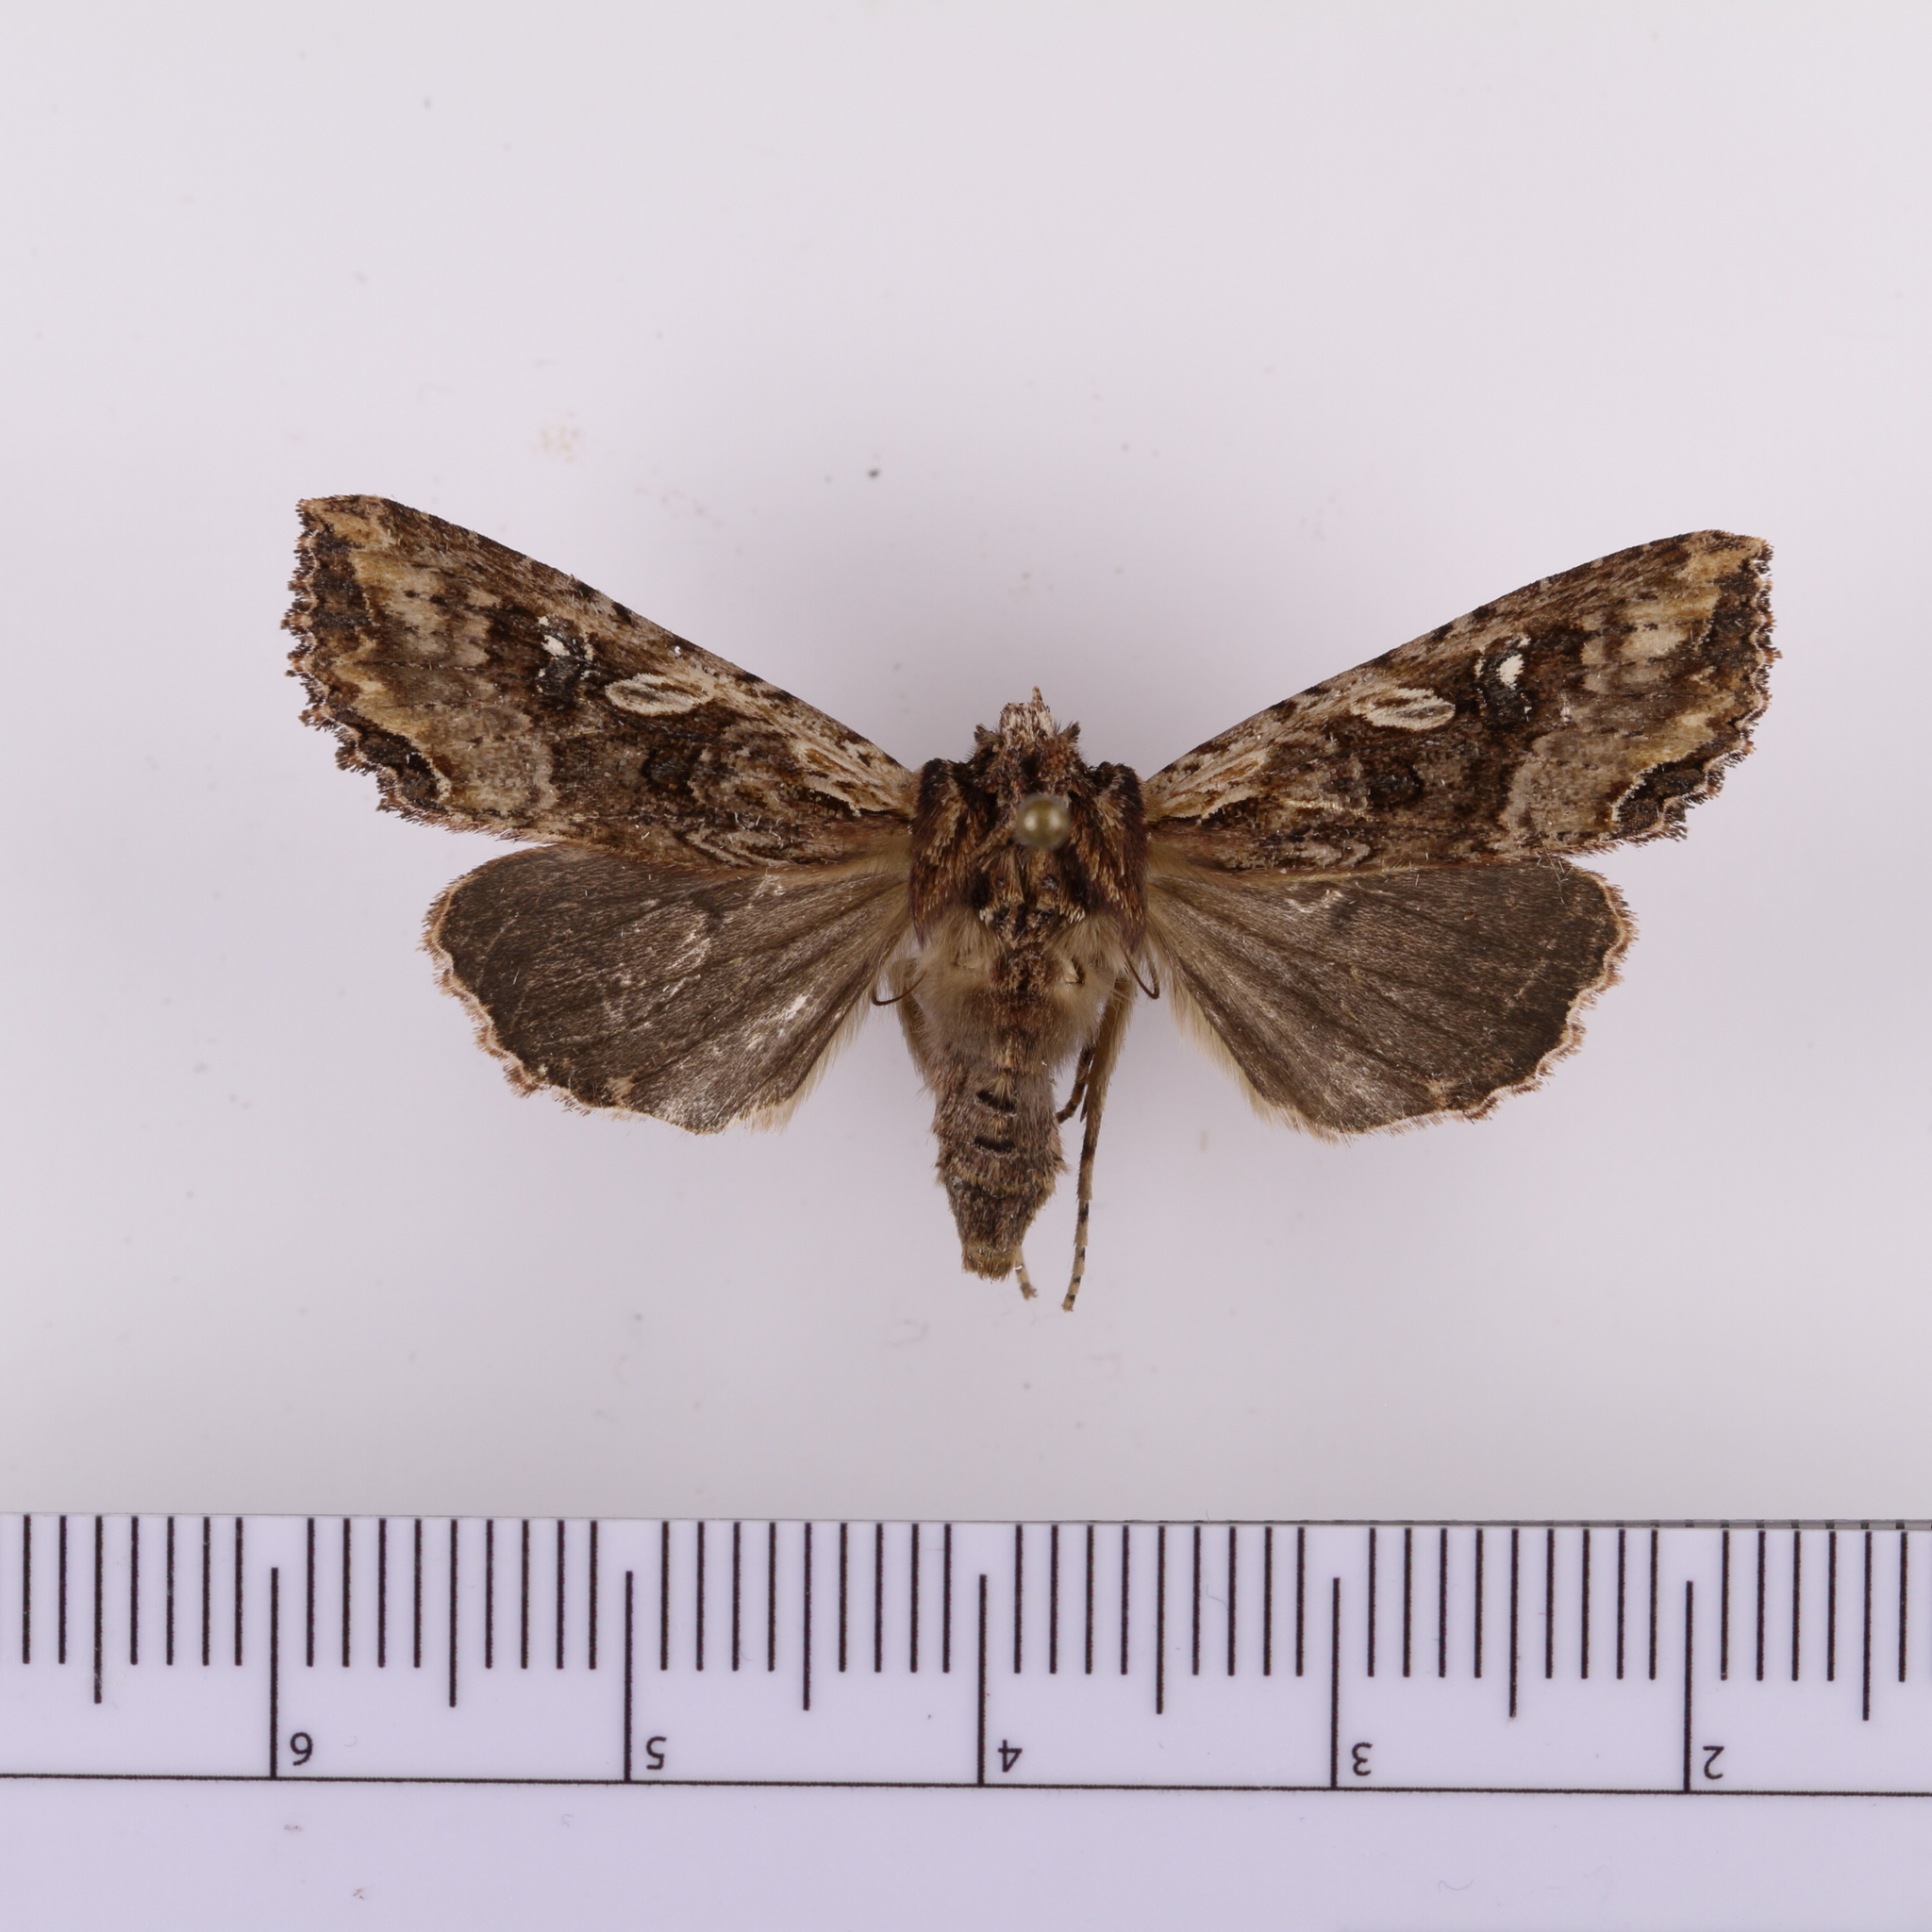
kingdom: Animalia
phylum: Arthropoda
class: Insecta
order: Lepidoptera
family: Noctuidae
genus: Meterana
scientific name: Meterana stipata
